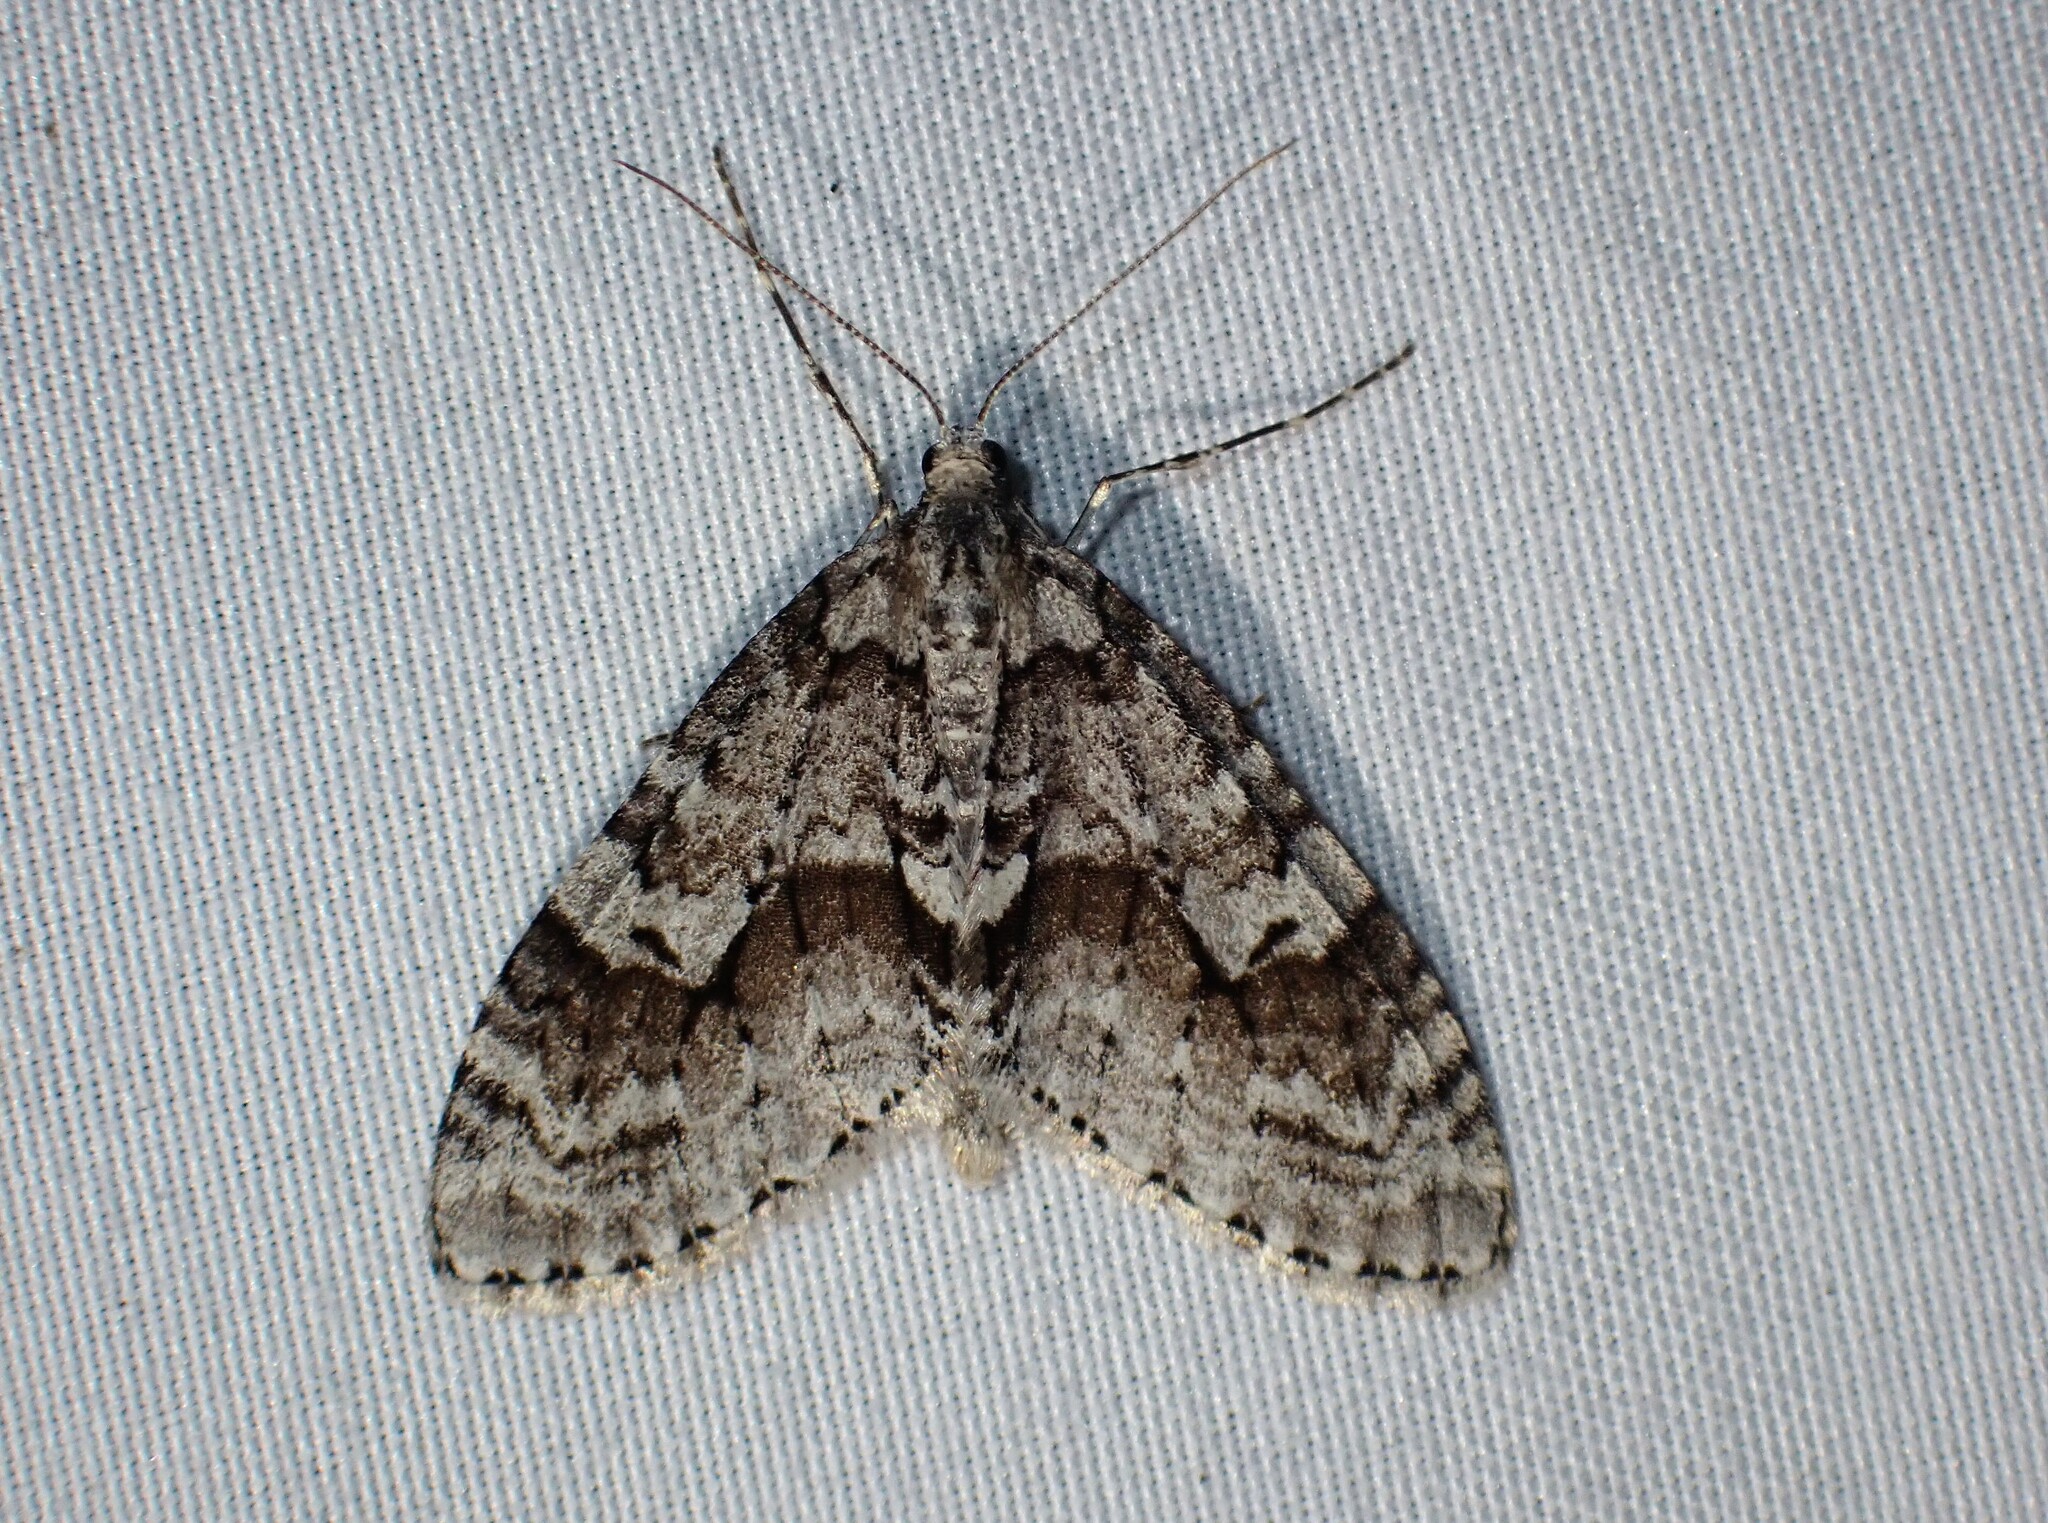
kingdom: Animalia
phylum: Arthropoda
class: Insecta
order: Lepidoptera
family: Geometridae
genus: Cladara
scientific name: Cladara limitaria
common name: Mottled gray carpet
